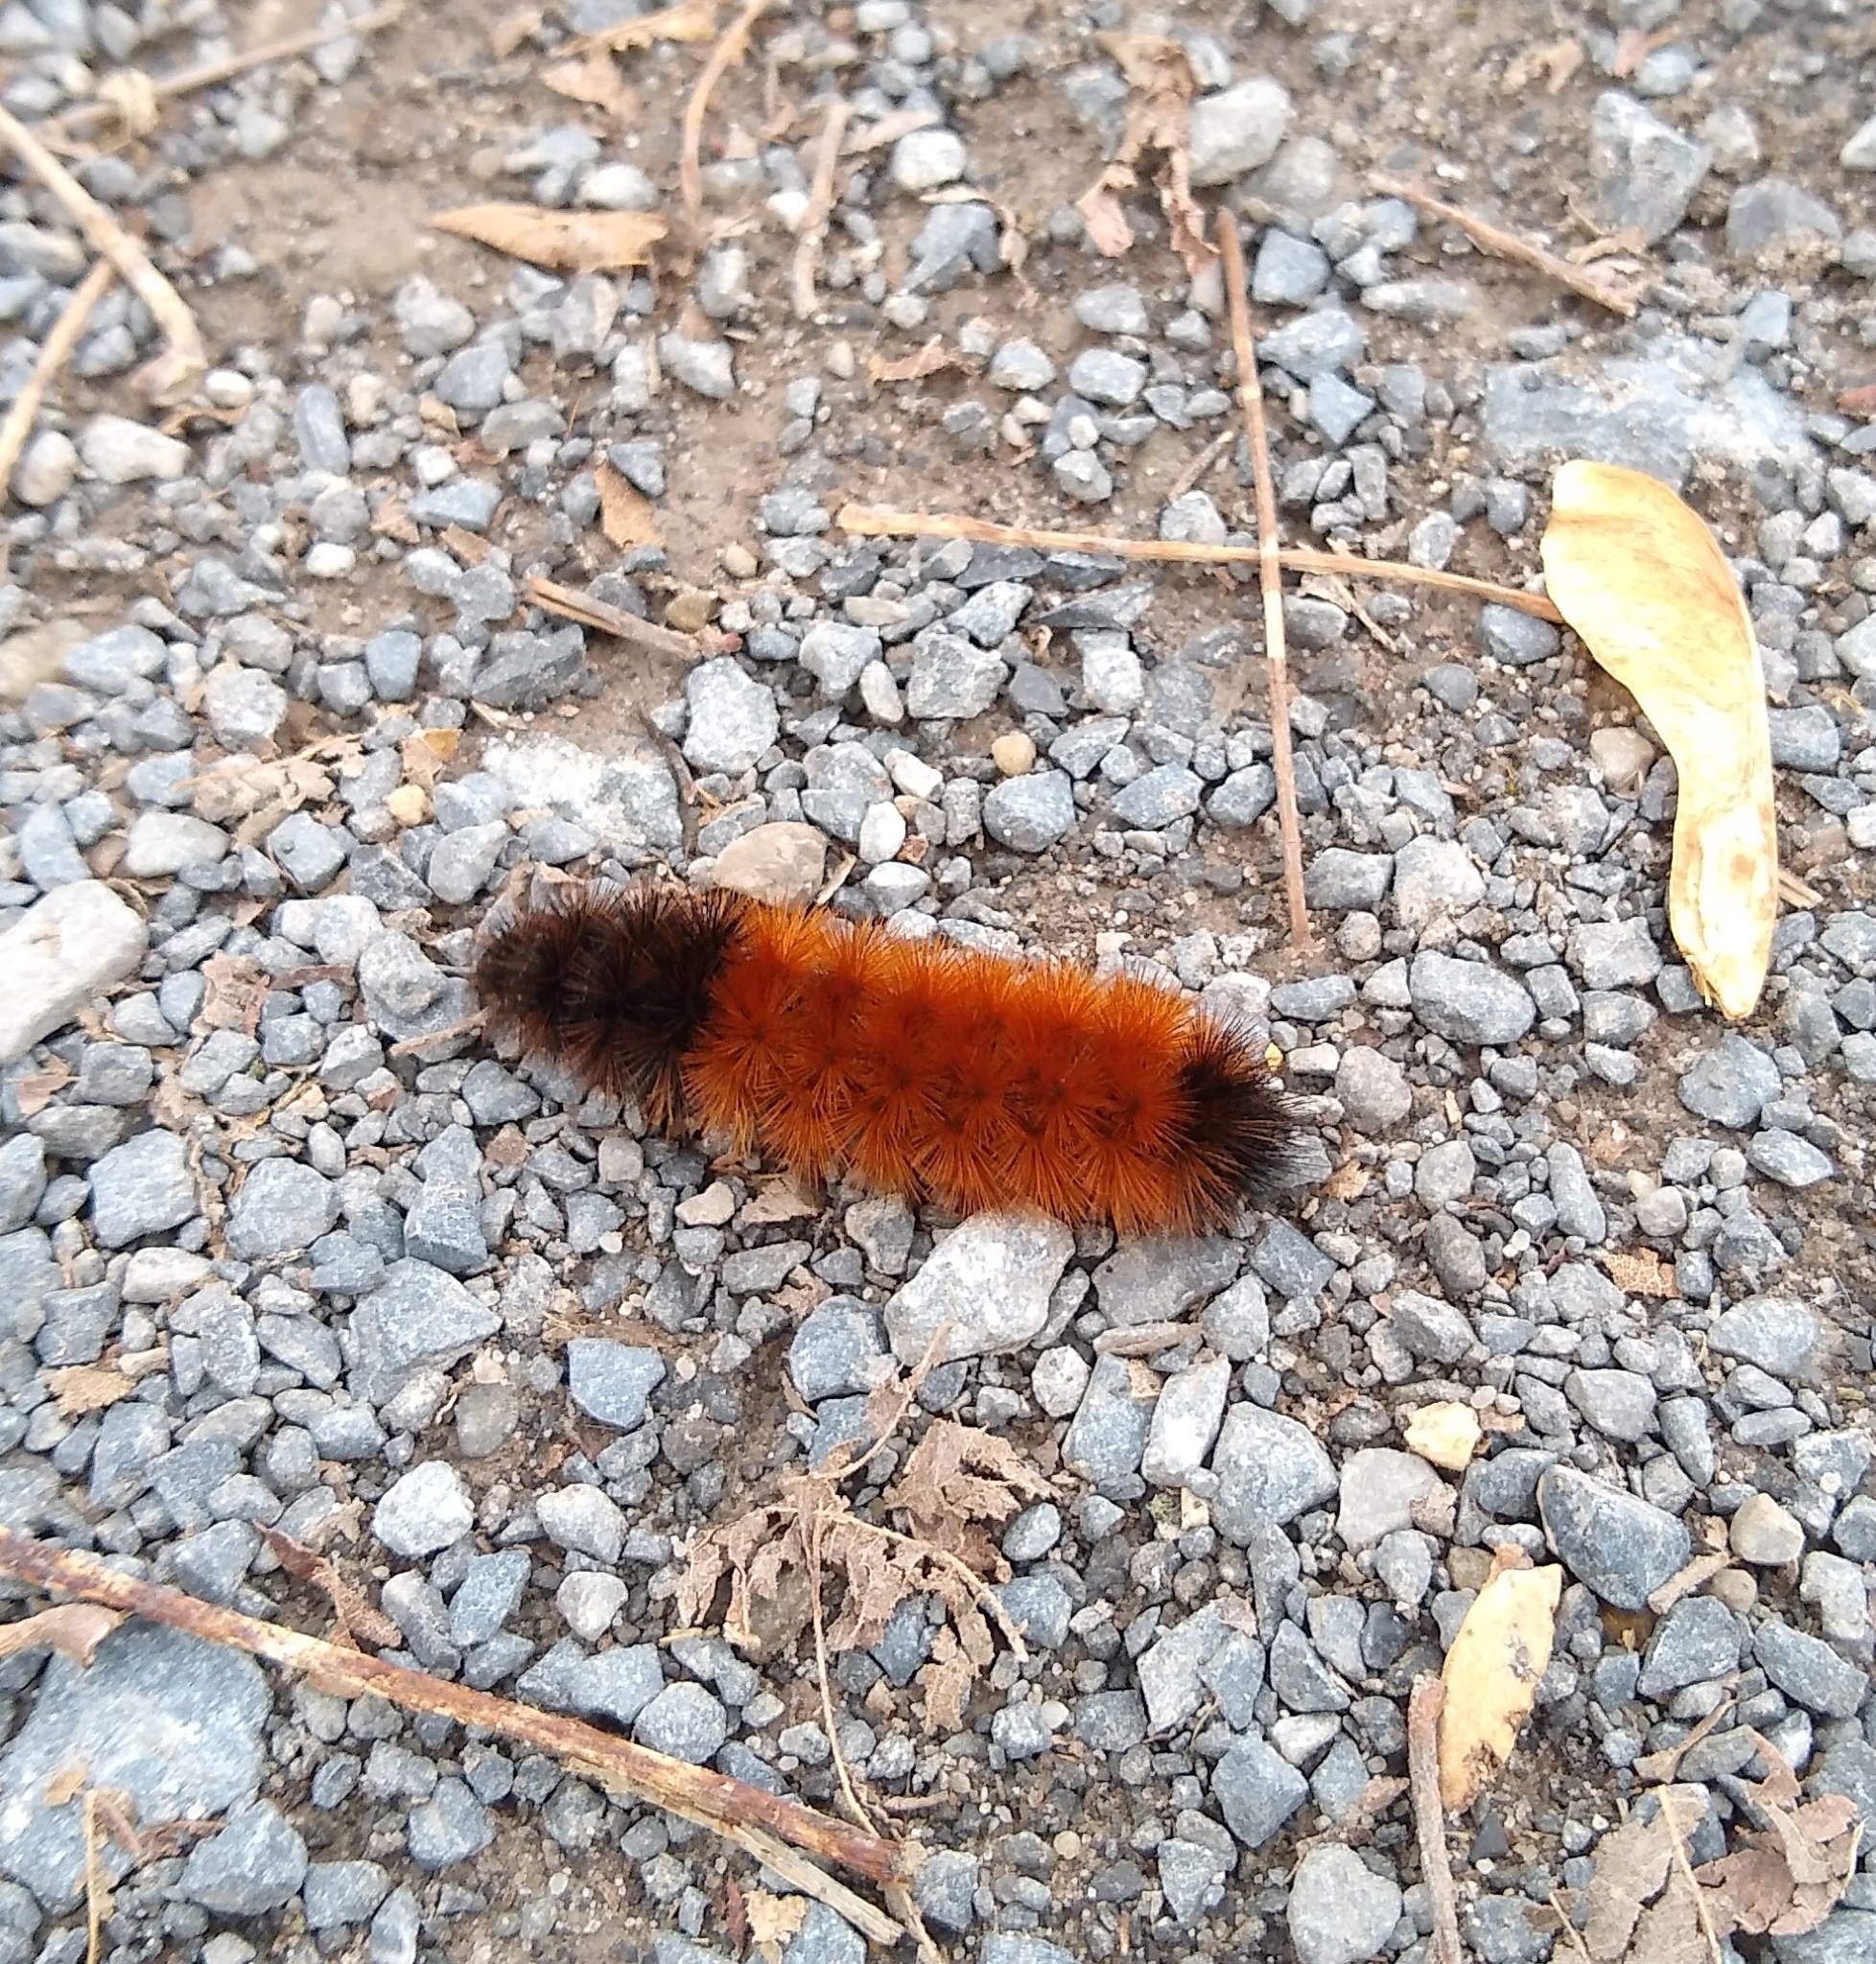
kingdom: Animalia
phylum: Arthropoda
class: Insecta
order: Lepidoptera
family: Erebidae
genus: Pyrrharctia
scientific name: Pyrrharctia isabella
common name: Isabella tiger moth
